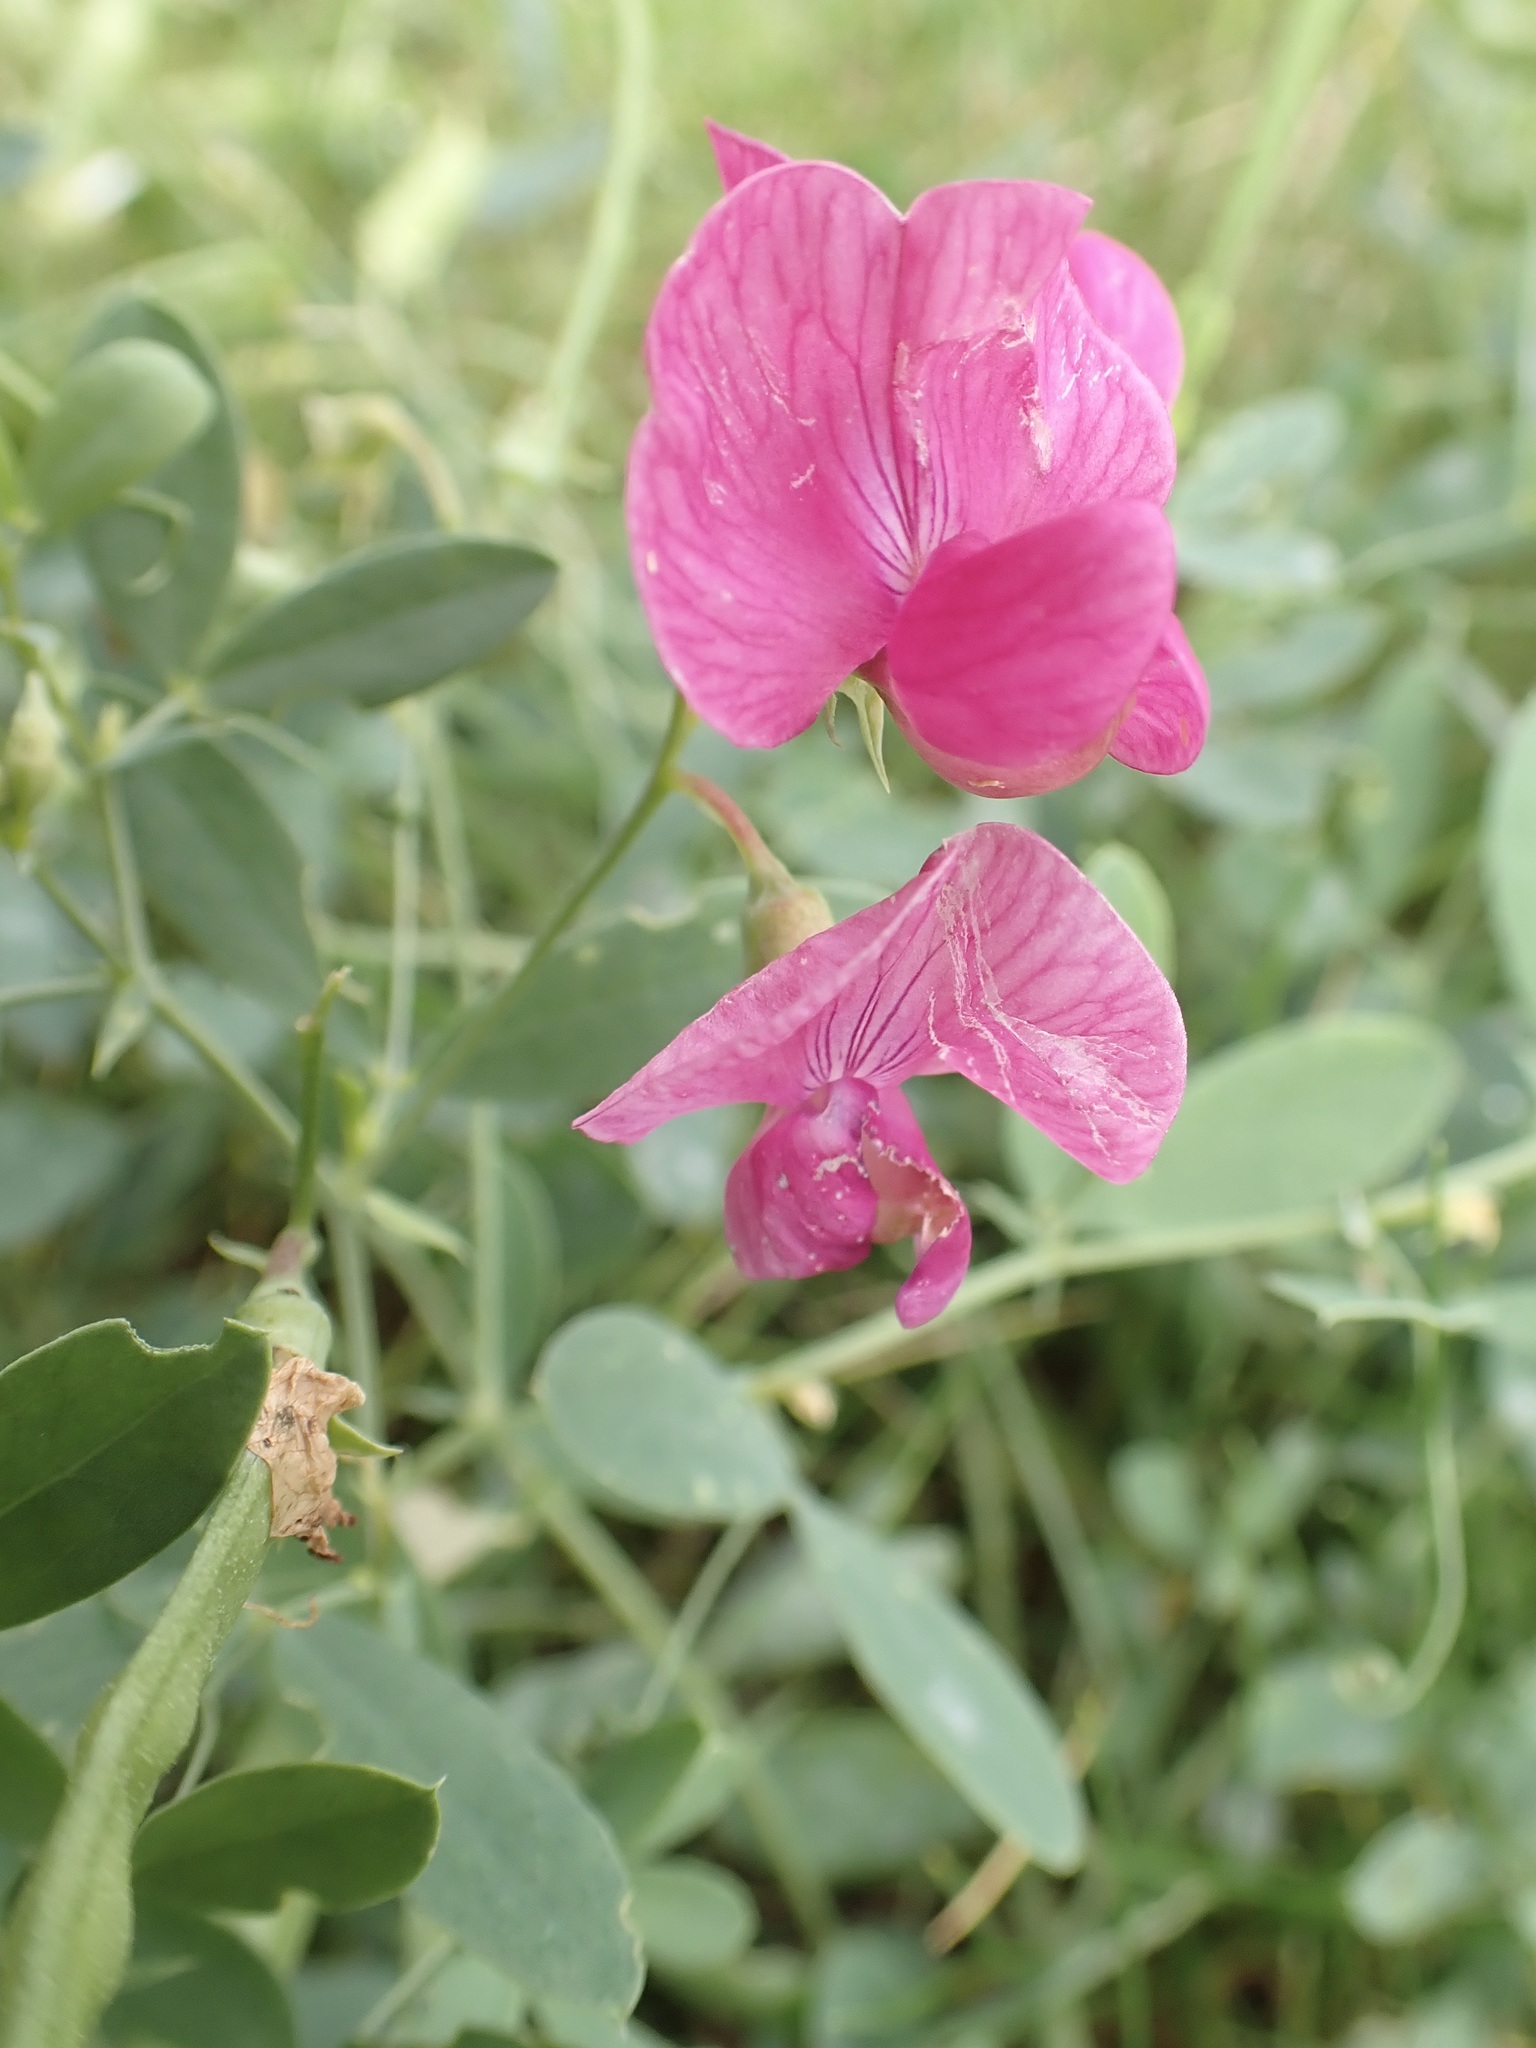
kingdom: Plantae
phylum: Tracheophyta
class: Magnoliopsida
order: Fabales
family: Fabaceae
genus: Lathyrus
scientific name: Lathyrus tuberosus
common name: Tuberous pea
